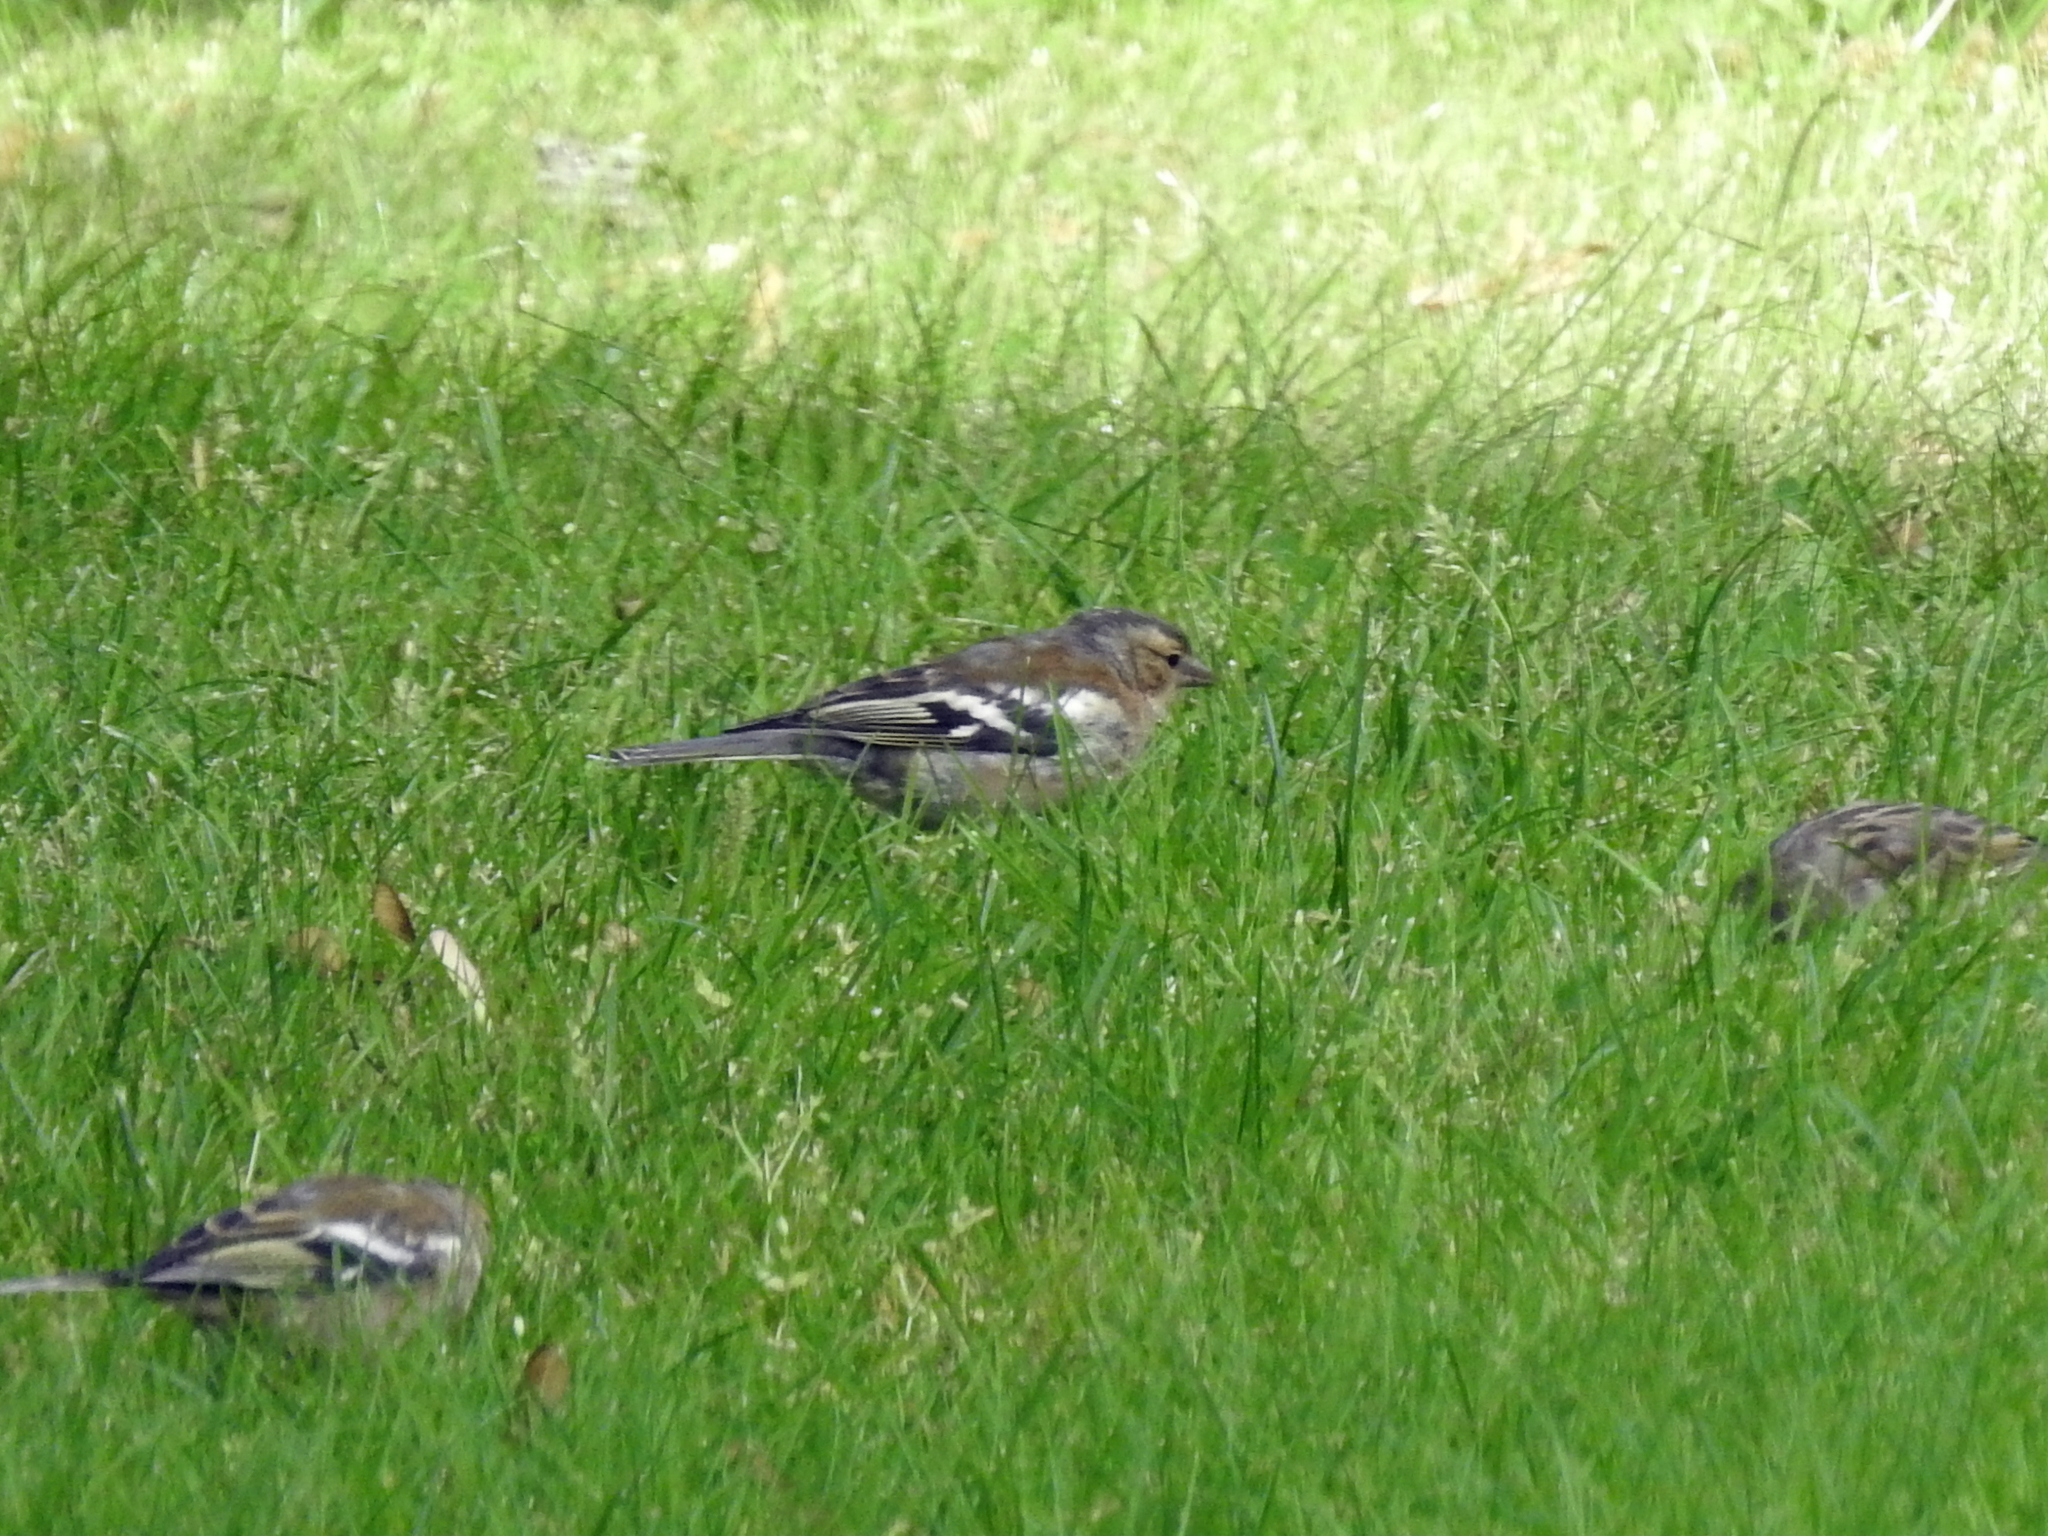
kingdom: Animalia
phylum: Chordata
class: Aves
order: Passeriformes
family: Fringillidae
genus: Fringilla
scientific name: Fringilla coelebs
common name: Common chaffinch
